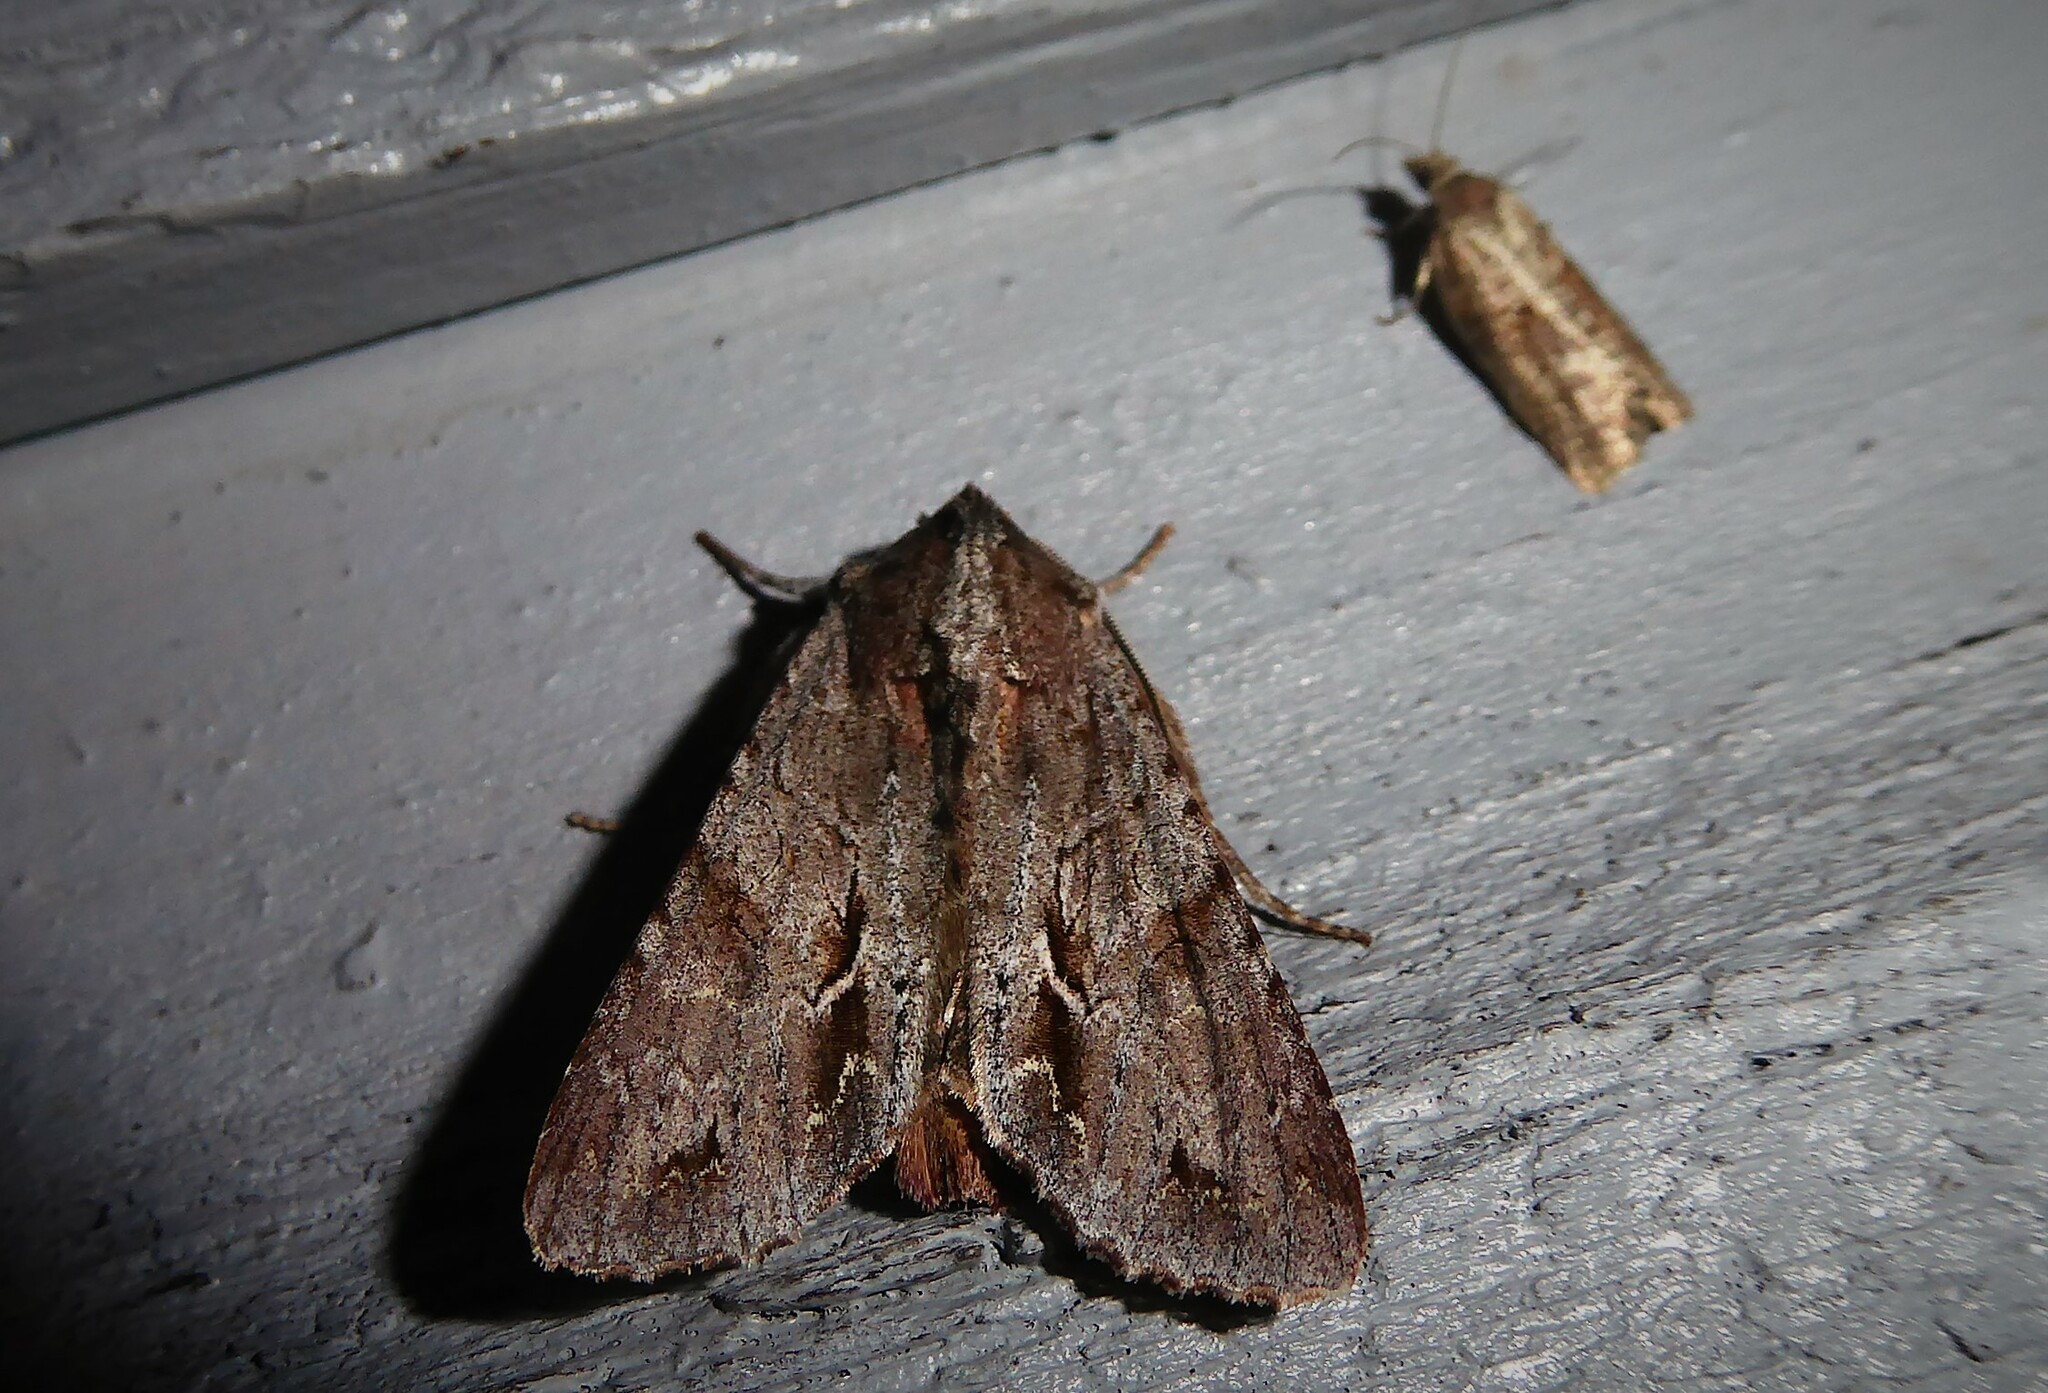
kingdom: Animalia
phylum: Arthropoda
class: Insecta
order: Lepidoptera
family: Noctuidae
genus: Ichneutica
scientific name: Ichneutica
